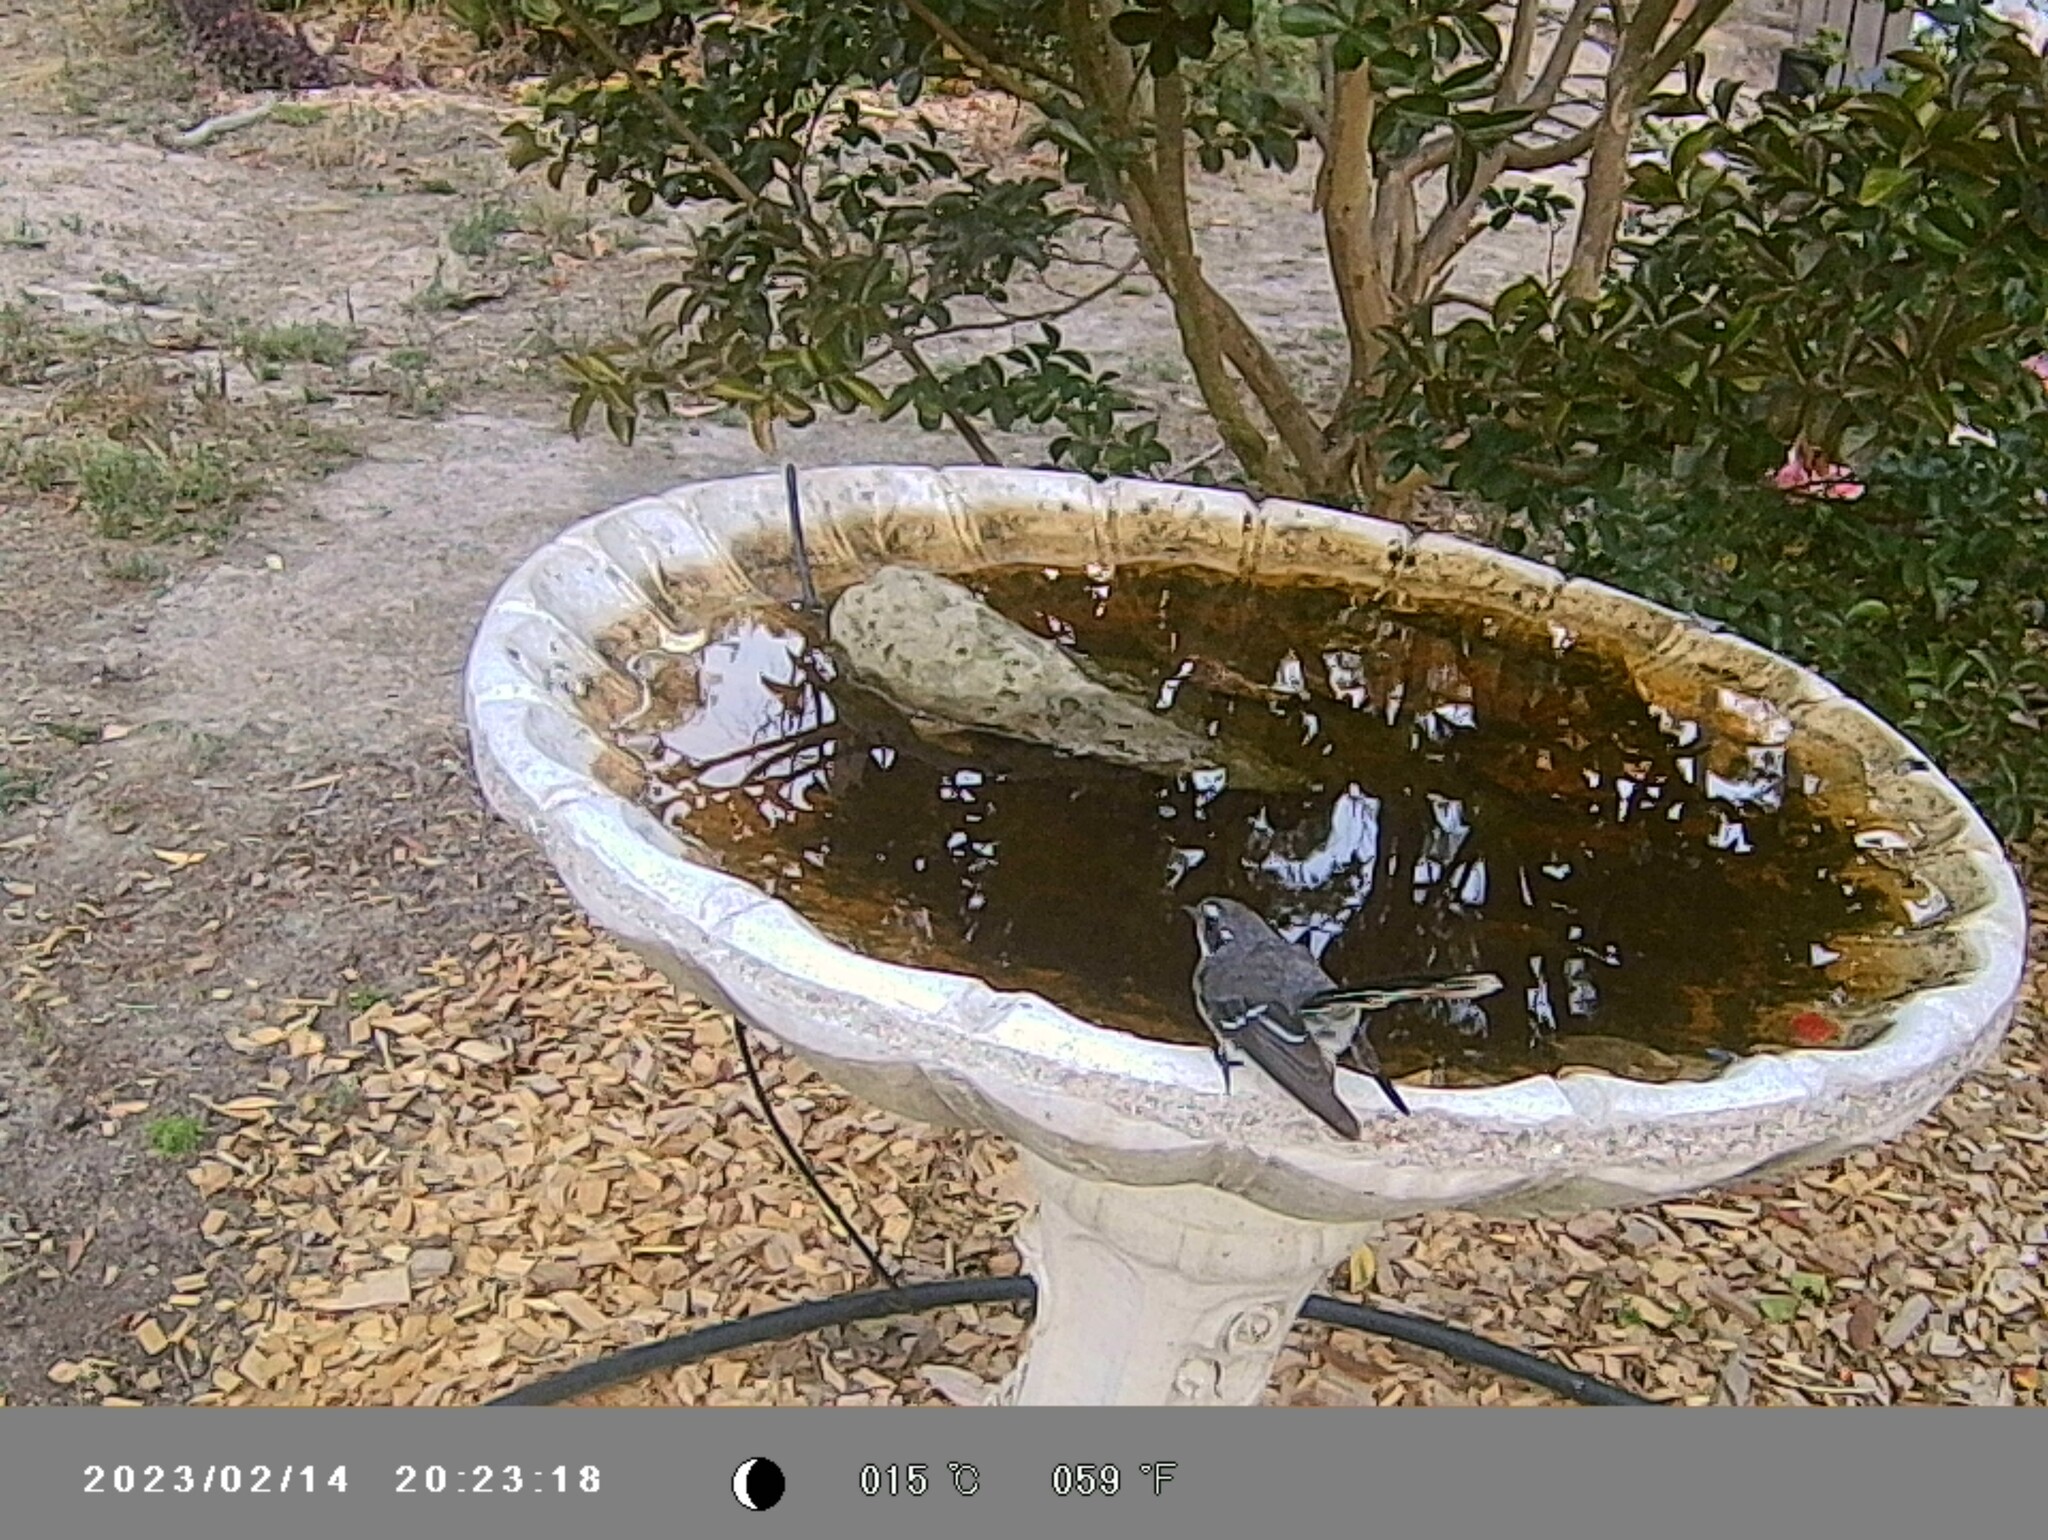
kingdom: Animalia
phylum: Chordata
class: Aves
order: Passeriformes
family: Rhipiduridae
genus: Rhipidura
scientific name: Rhipidura albiscapa
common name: Grey fantail
